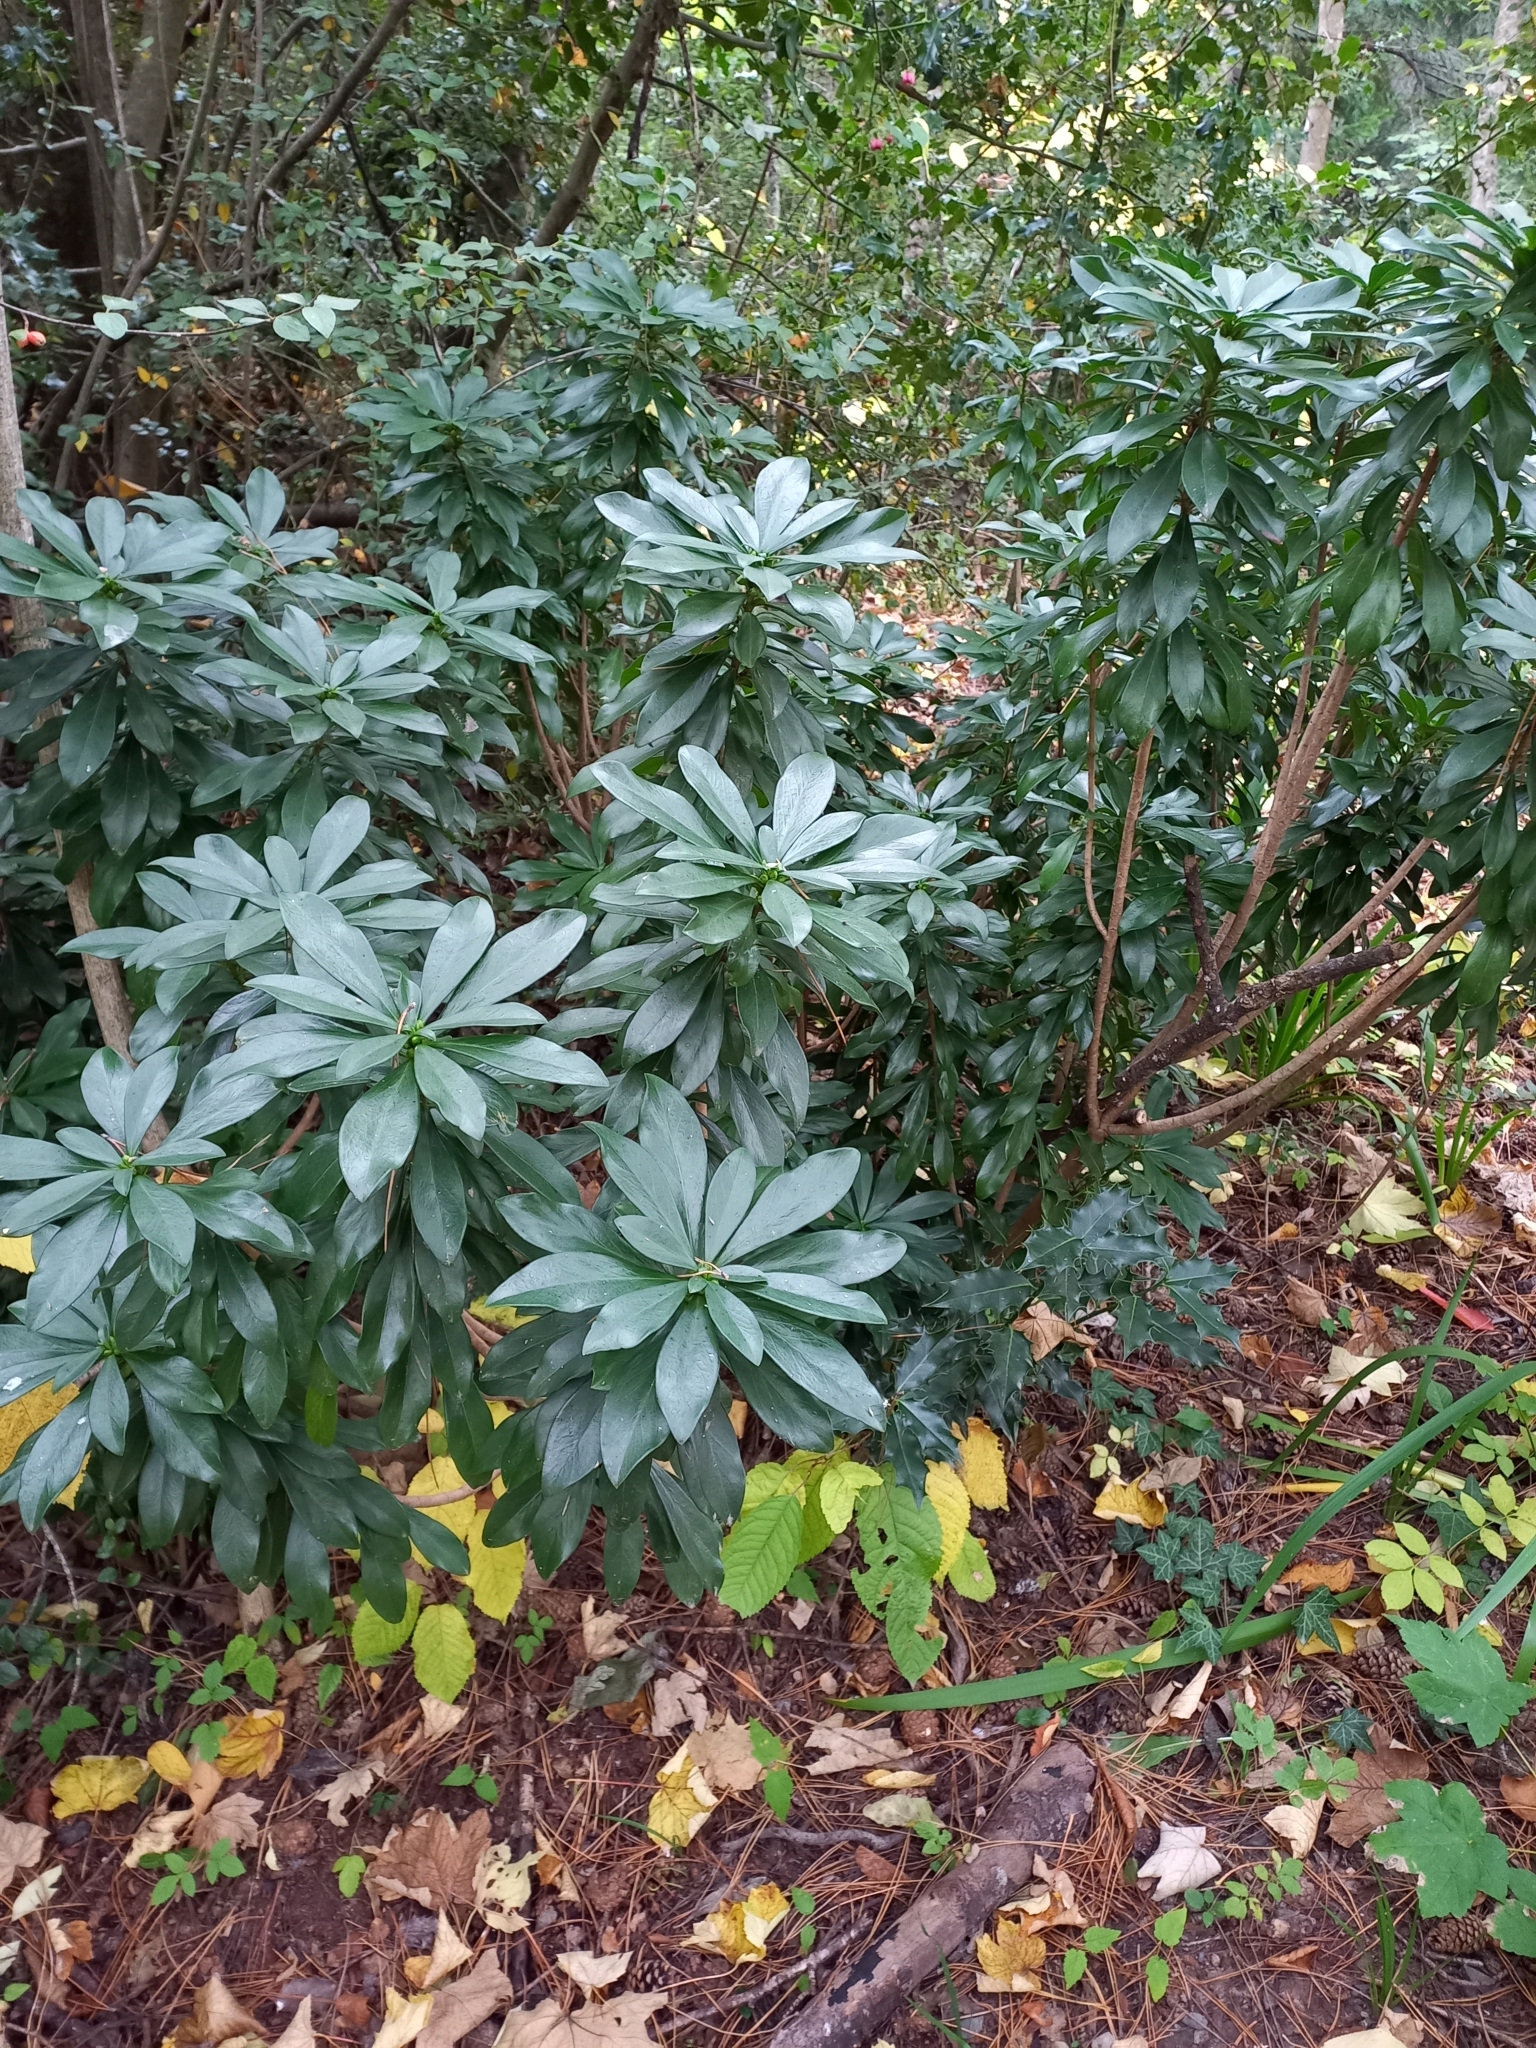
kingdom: Plantae
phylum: Tracheophyta
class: Magnoliopsida
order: Malvales
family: Thymelaeaceae
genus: Daphne
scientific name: Daphne laureola
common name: Spurge-laurel
